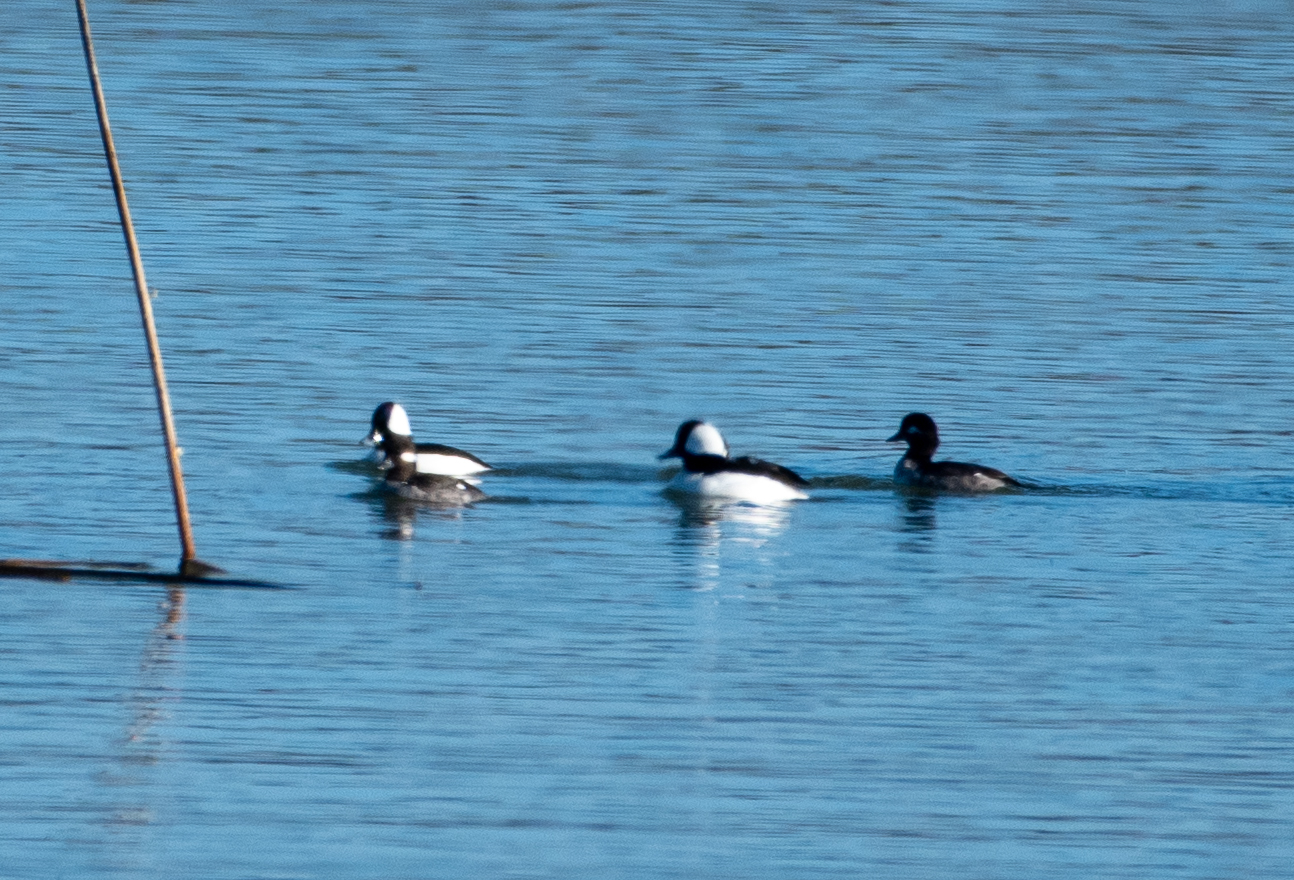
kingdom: Animalia
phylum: Chordata
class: Aves
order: Anseriformes
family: Anatidae
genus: Bucephala
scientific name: Bucephala albeola
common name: Bufflehead
